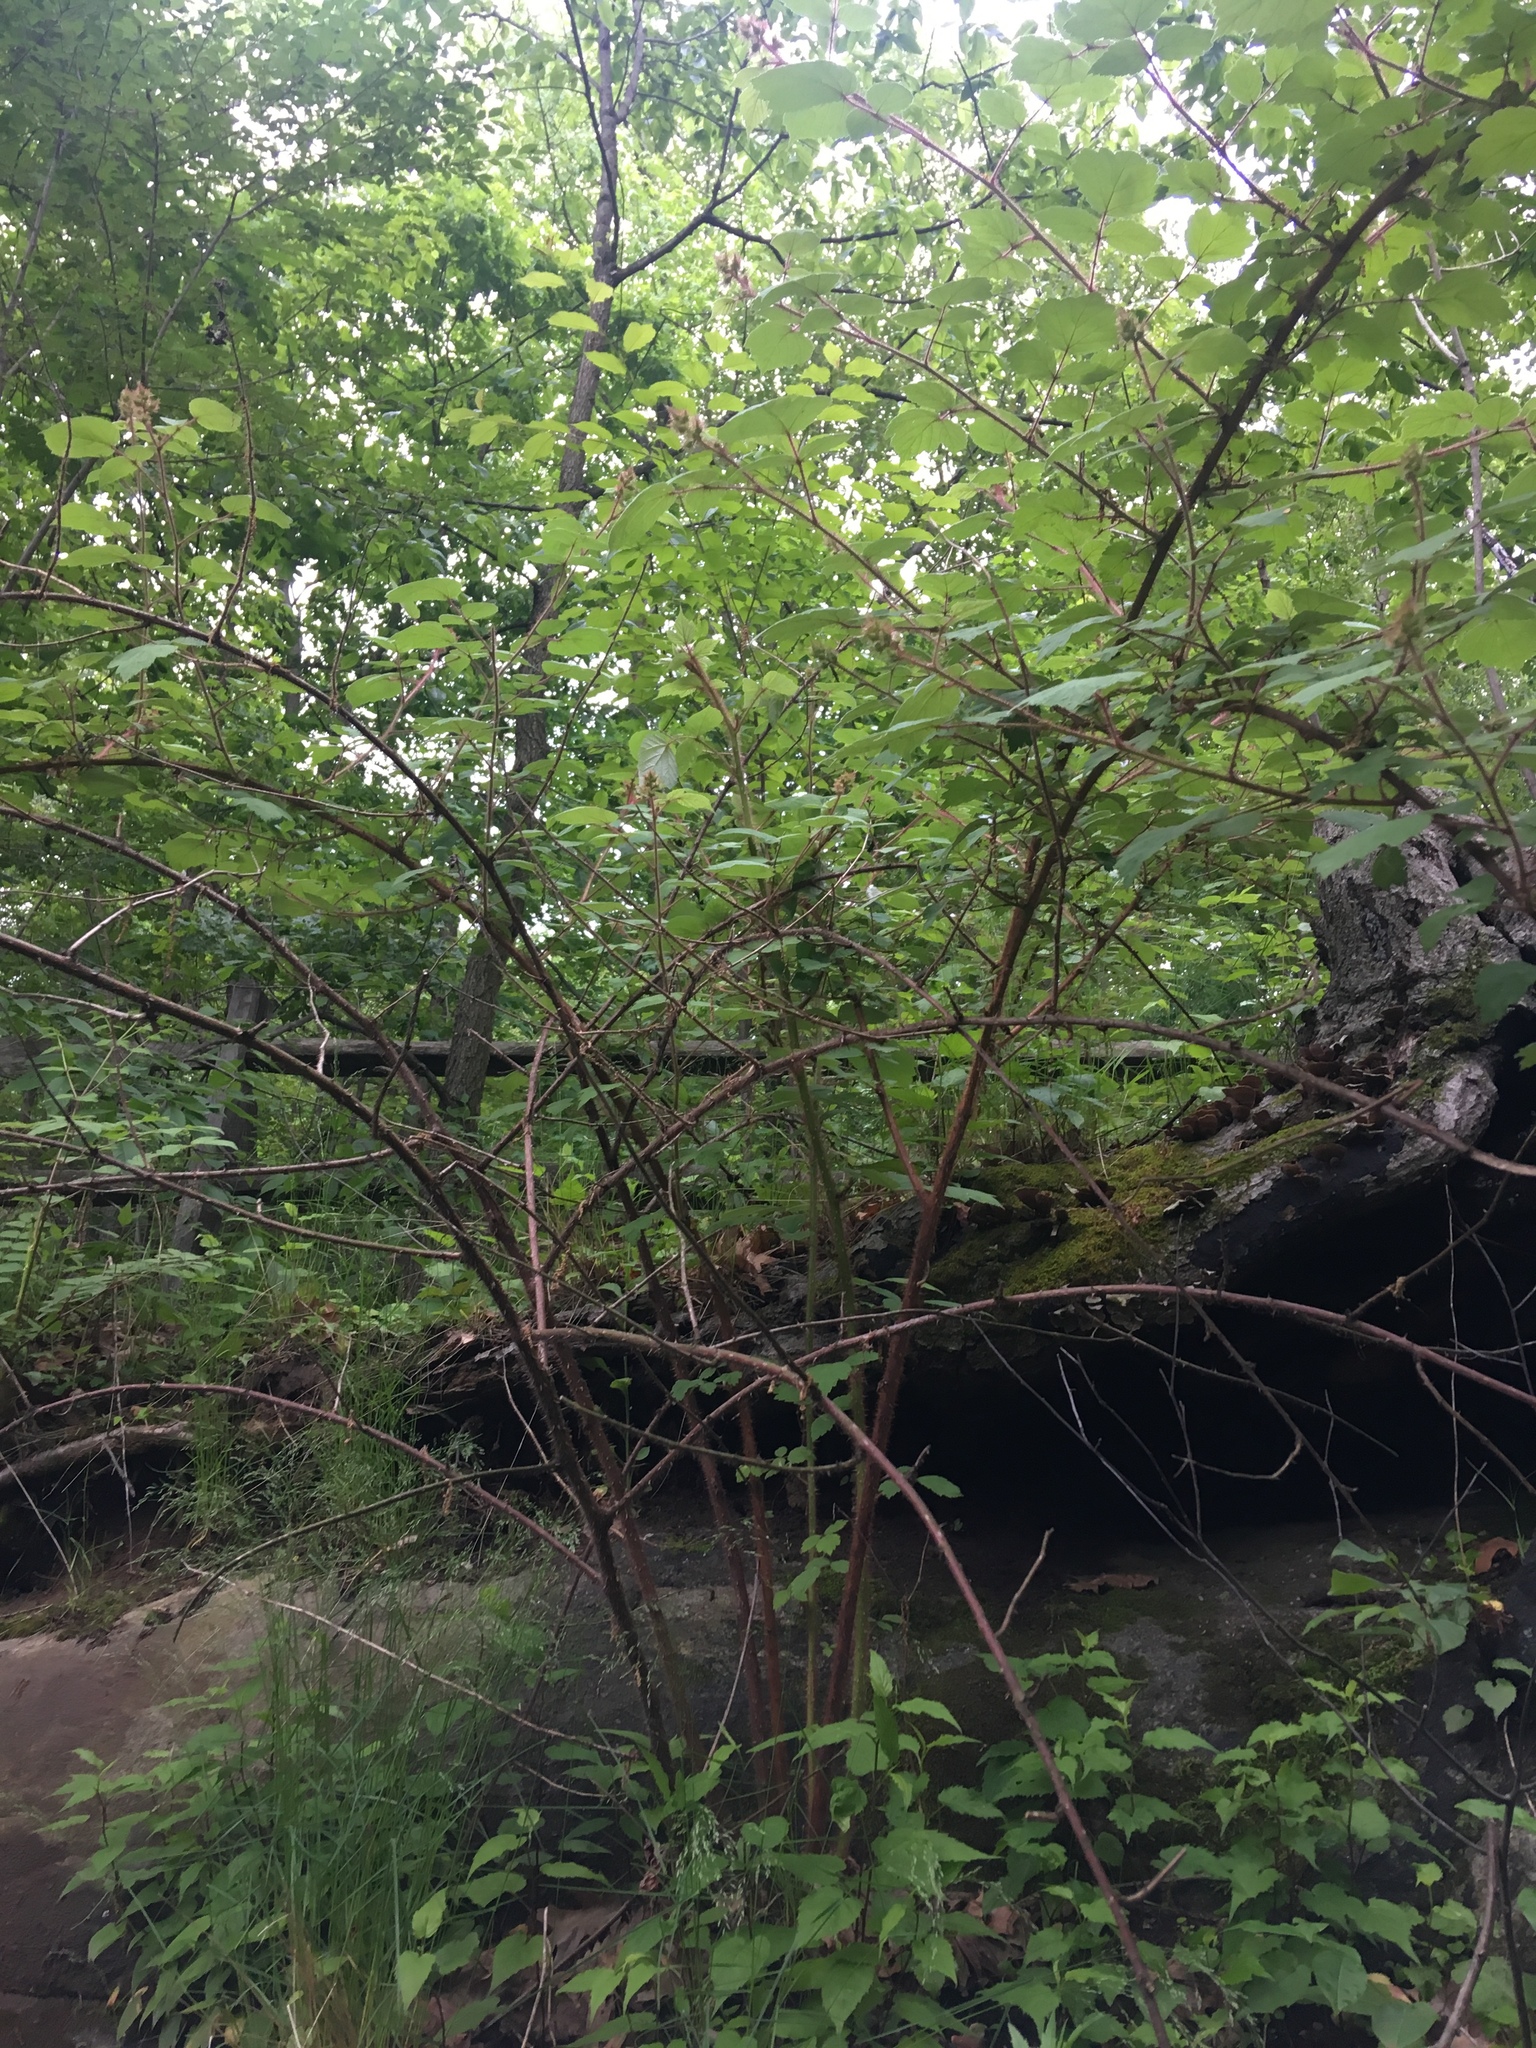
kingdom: Plantae
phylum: Tracheophyta
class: Magnoliopsida
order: Rosales
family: Rosaceae
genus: Rubus
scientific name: Rubus phoenicolasius
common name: Japanese wineberry
